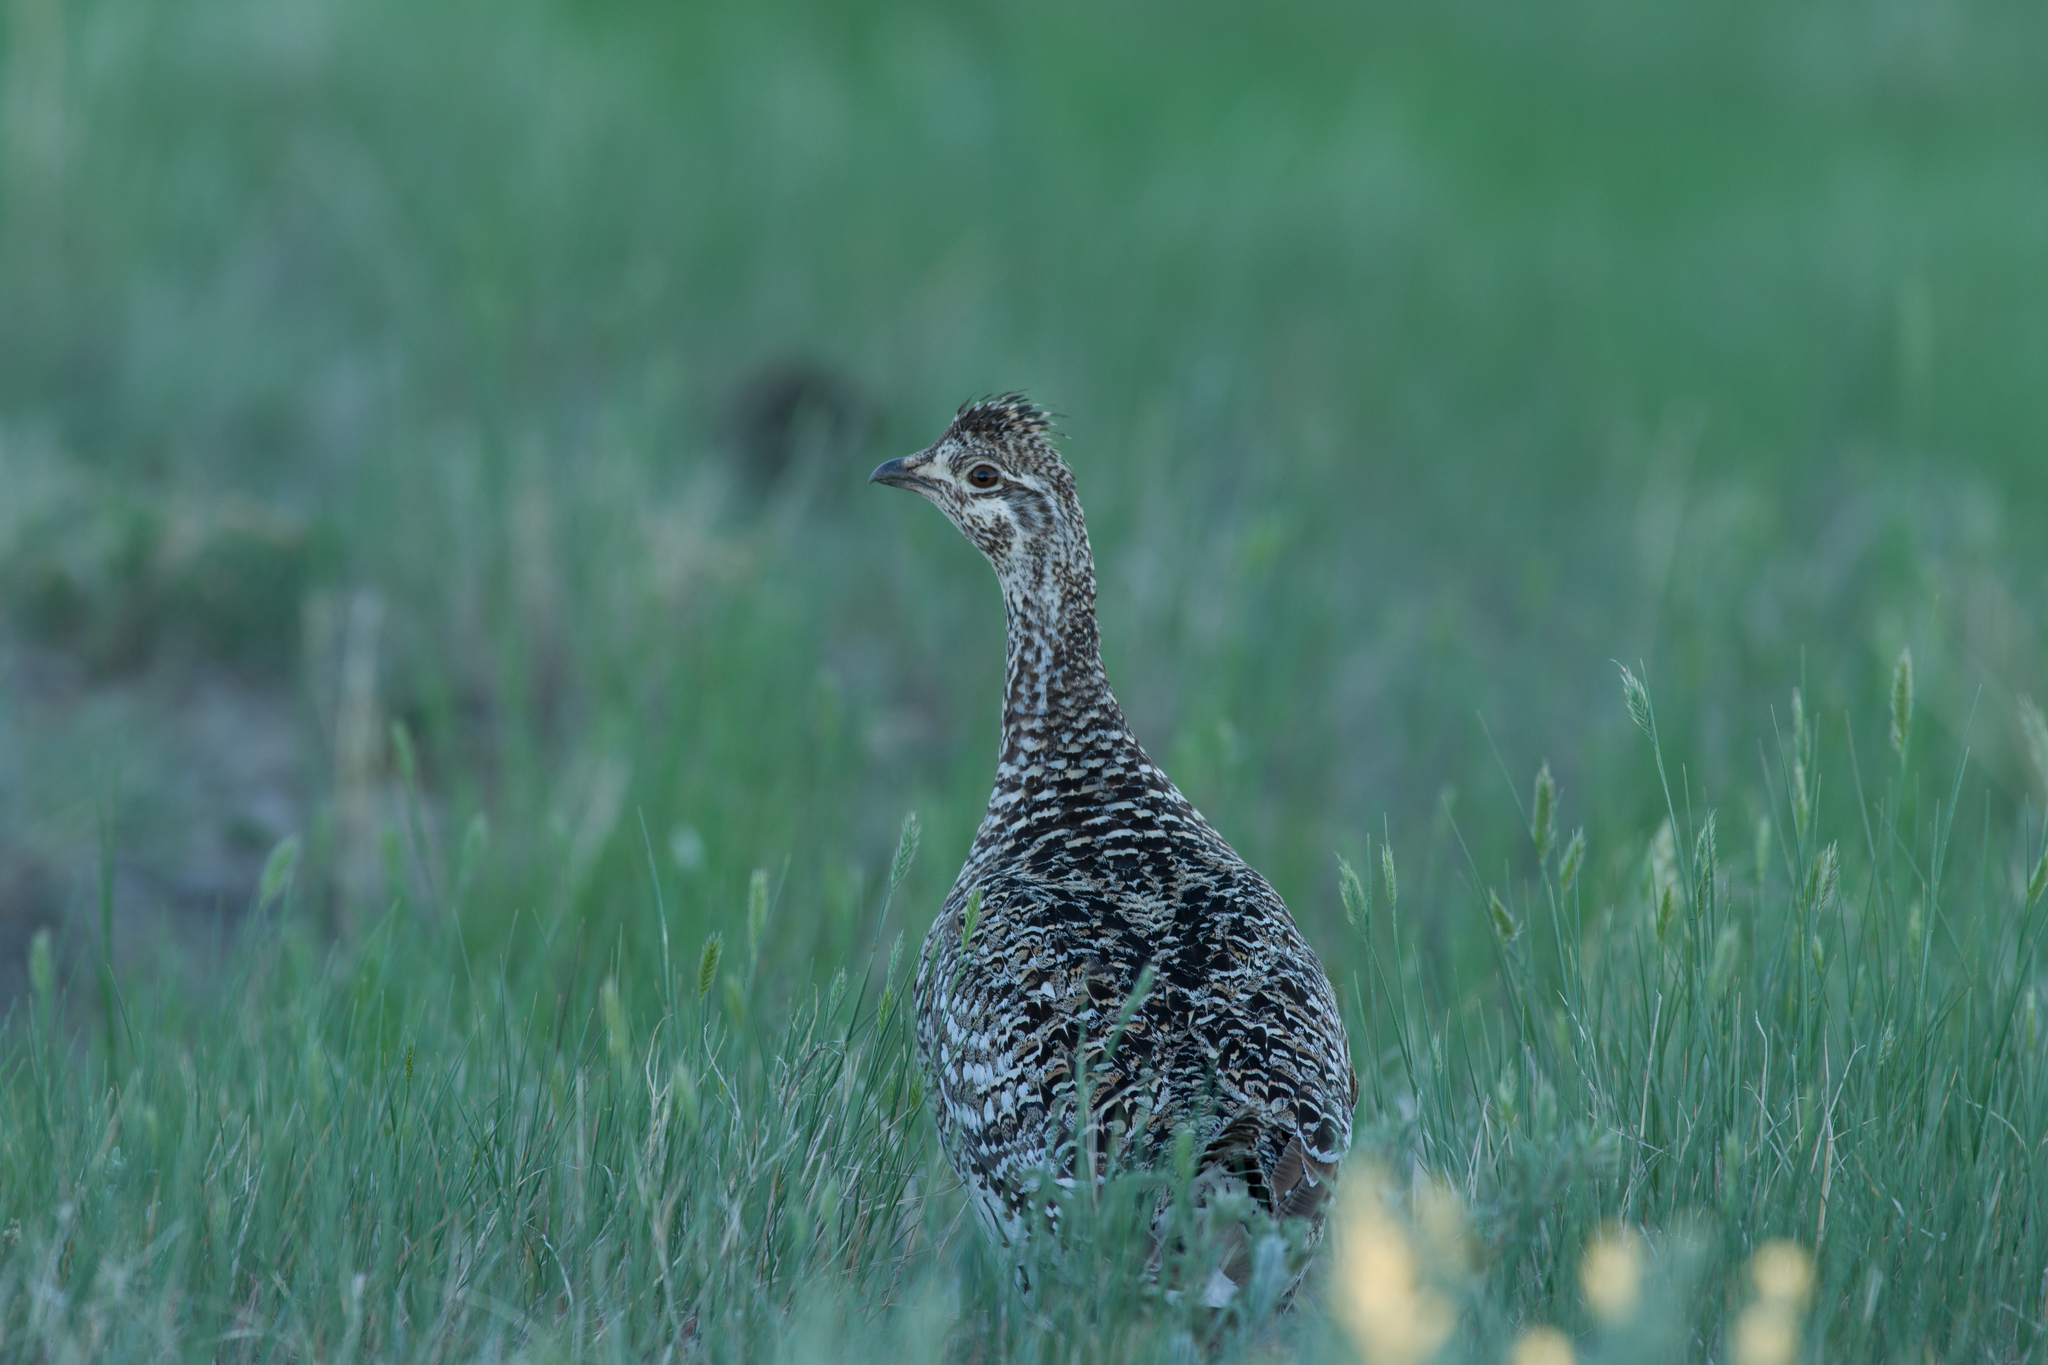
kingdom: Animalia
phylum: Chordata
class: Aves
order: Galliformes
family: Phasianidae
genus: Tympanuchus
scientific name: Tympanuchus phasianellus
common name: Sharp-tailed grouse
